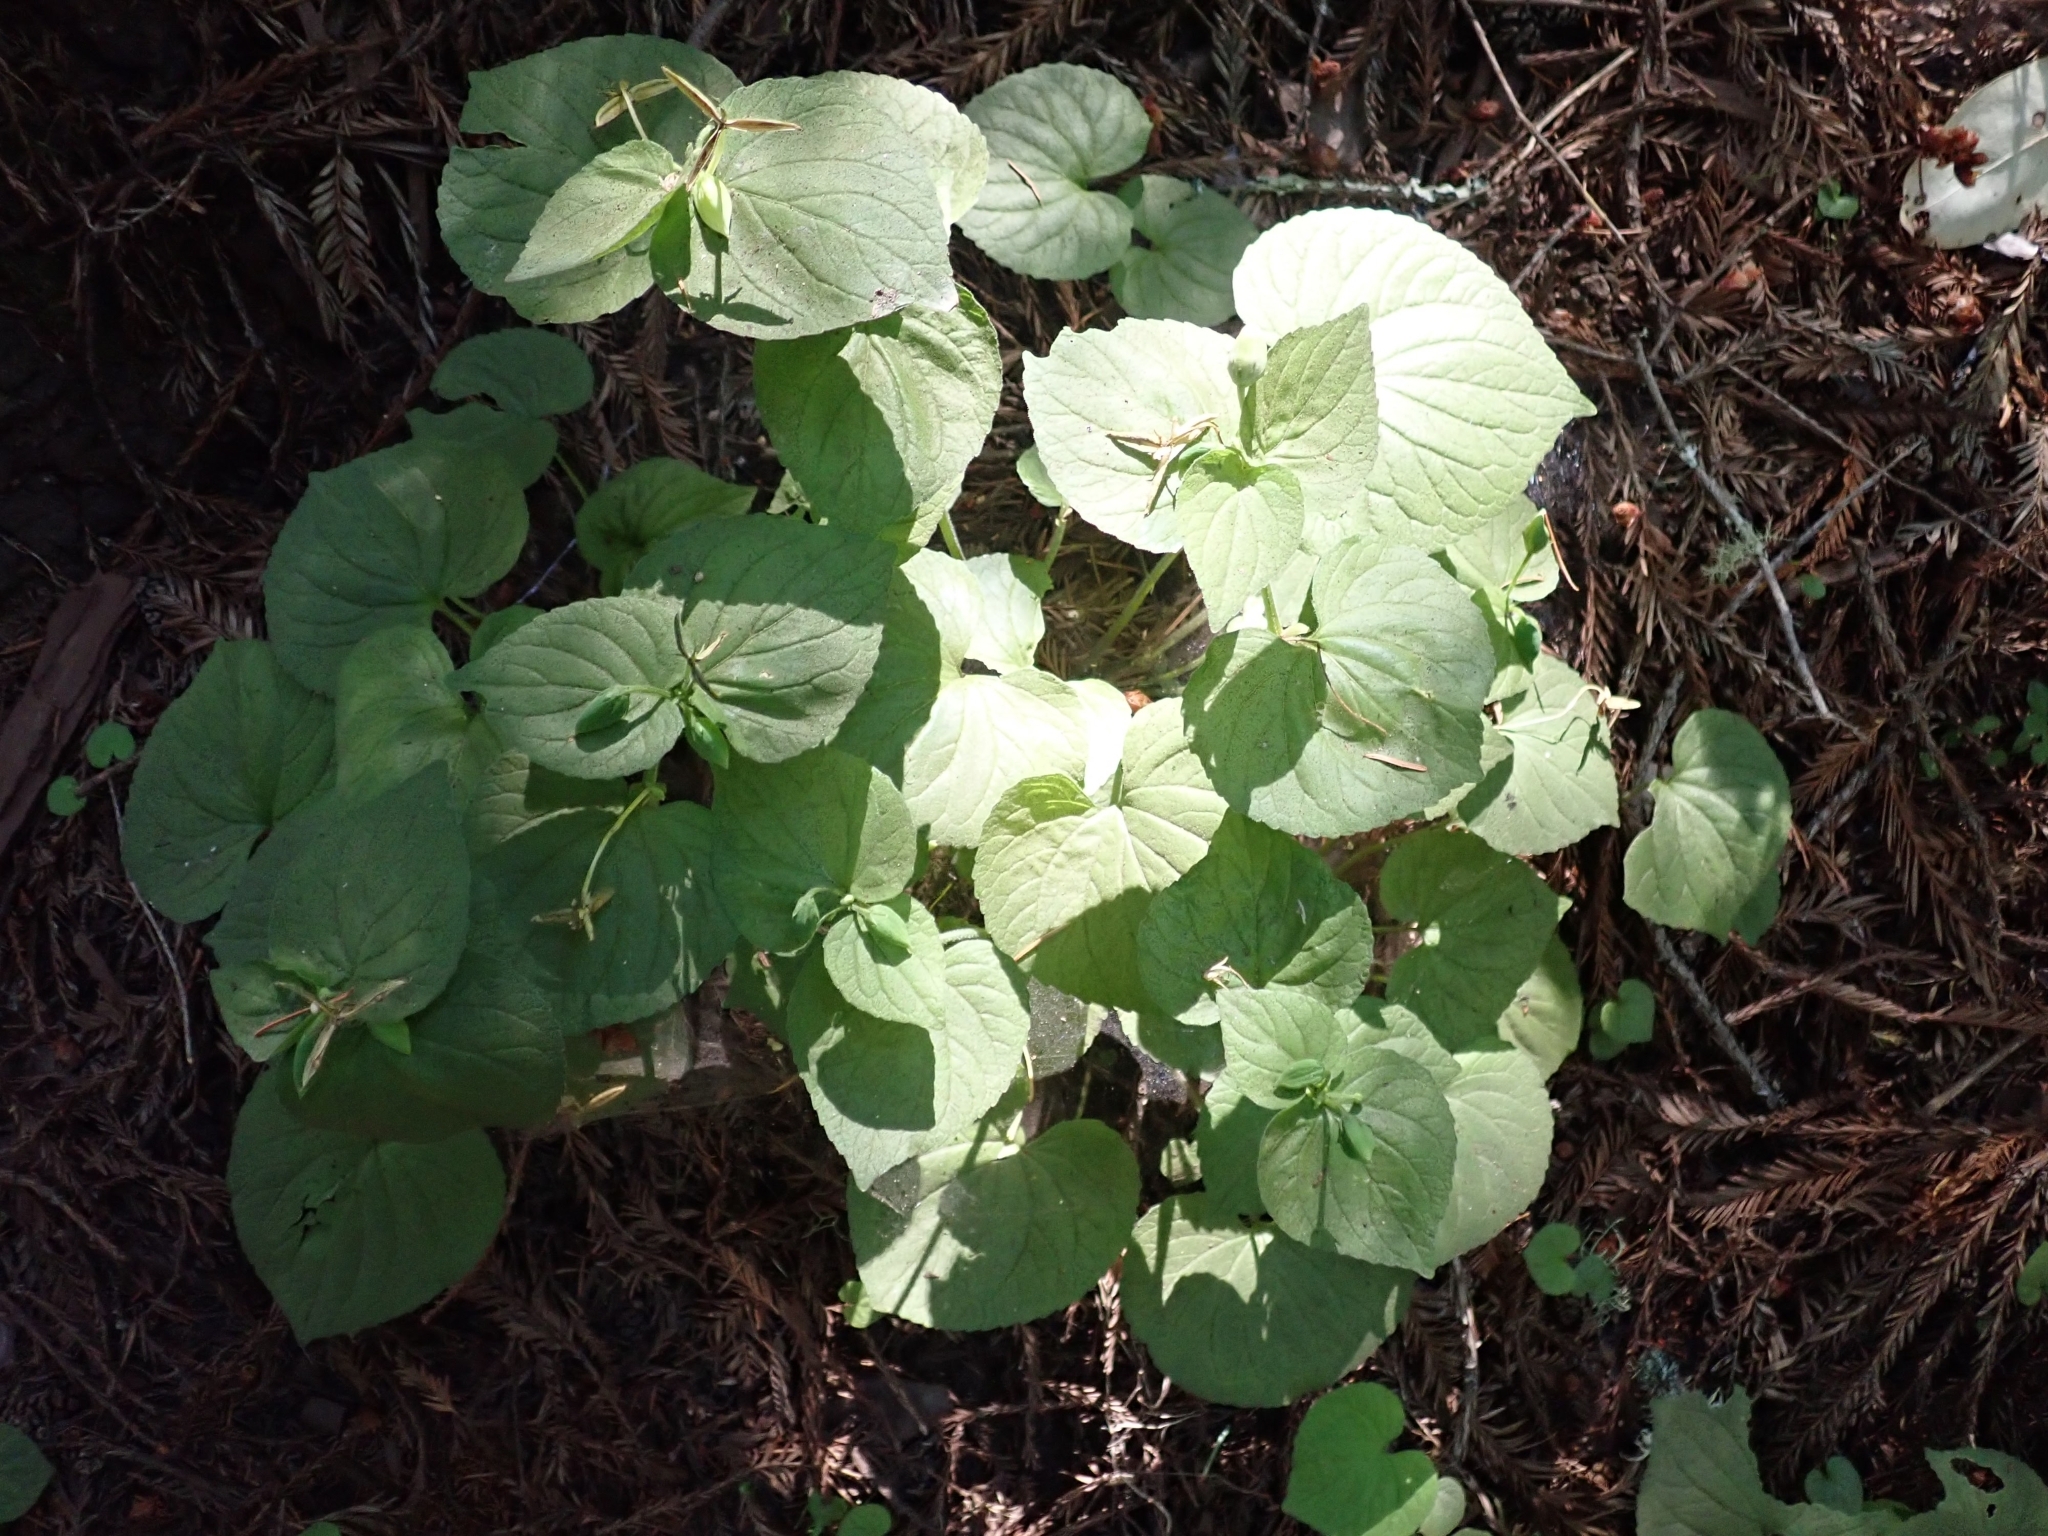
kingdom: Plantae
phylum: Tracheophyta
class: Magnoliopsida
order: Malpighiales
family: Violaceae
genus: Viola
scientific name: Viola glabella
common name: Stream violet
